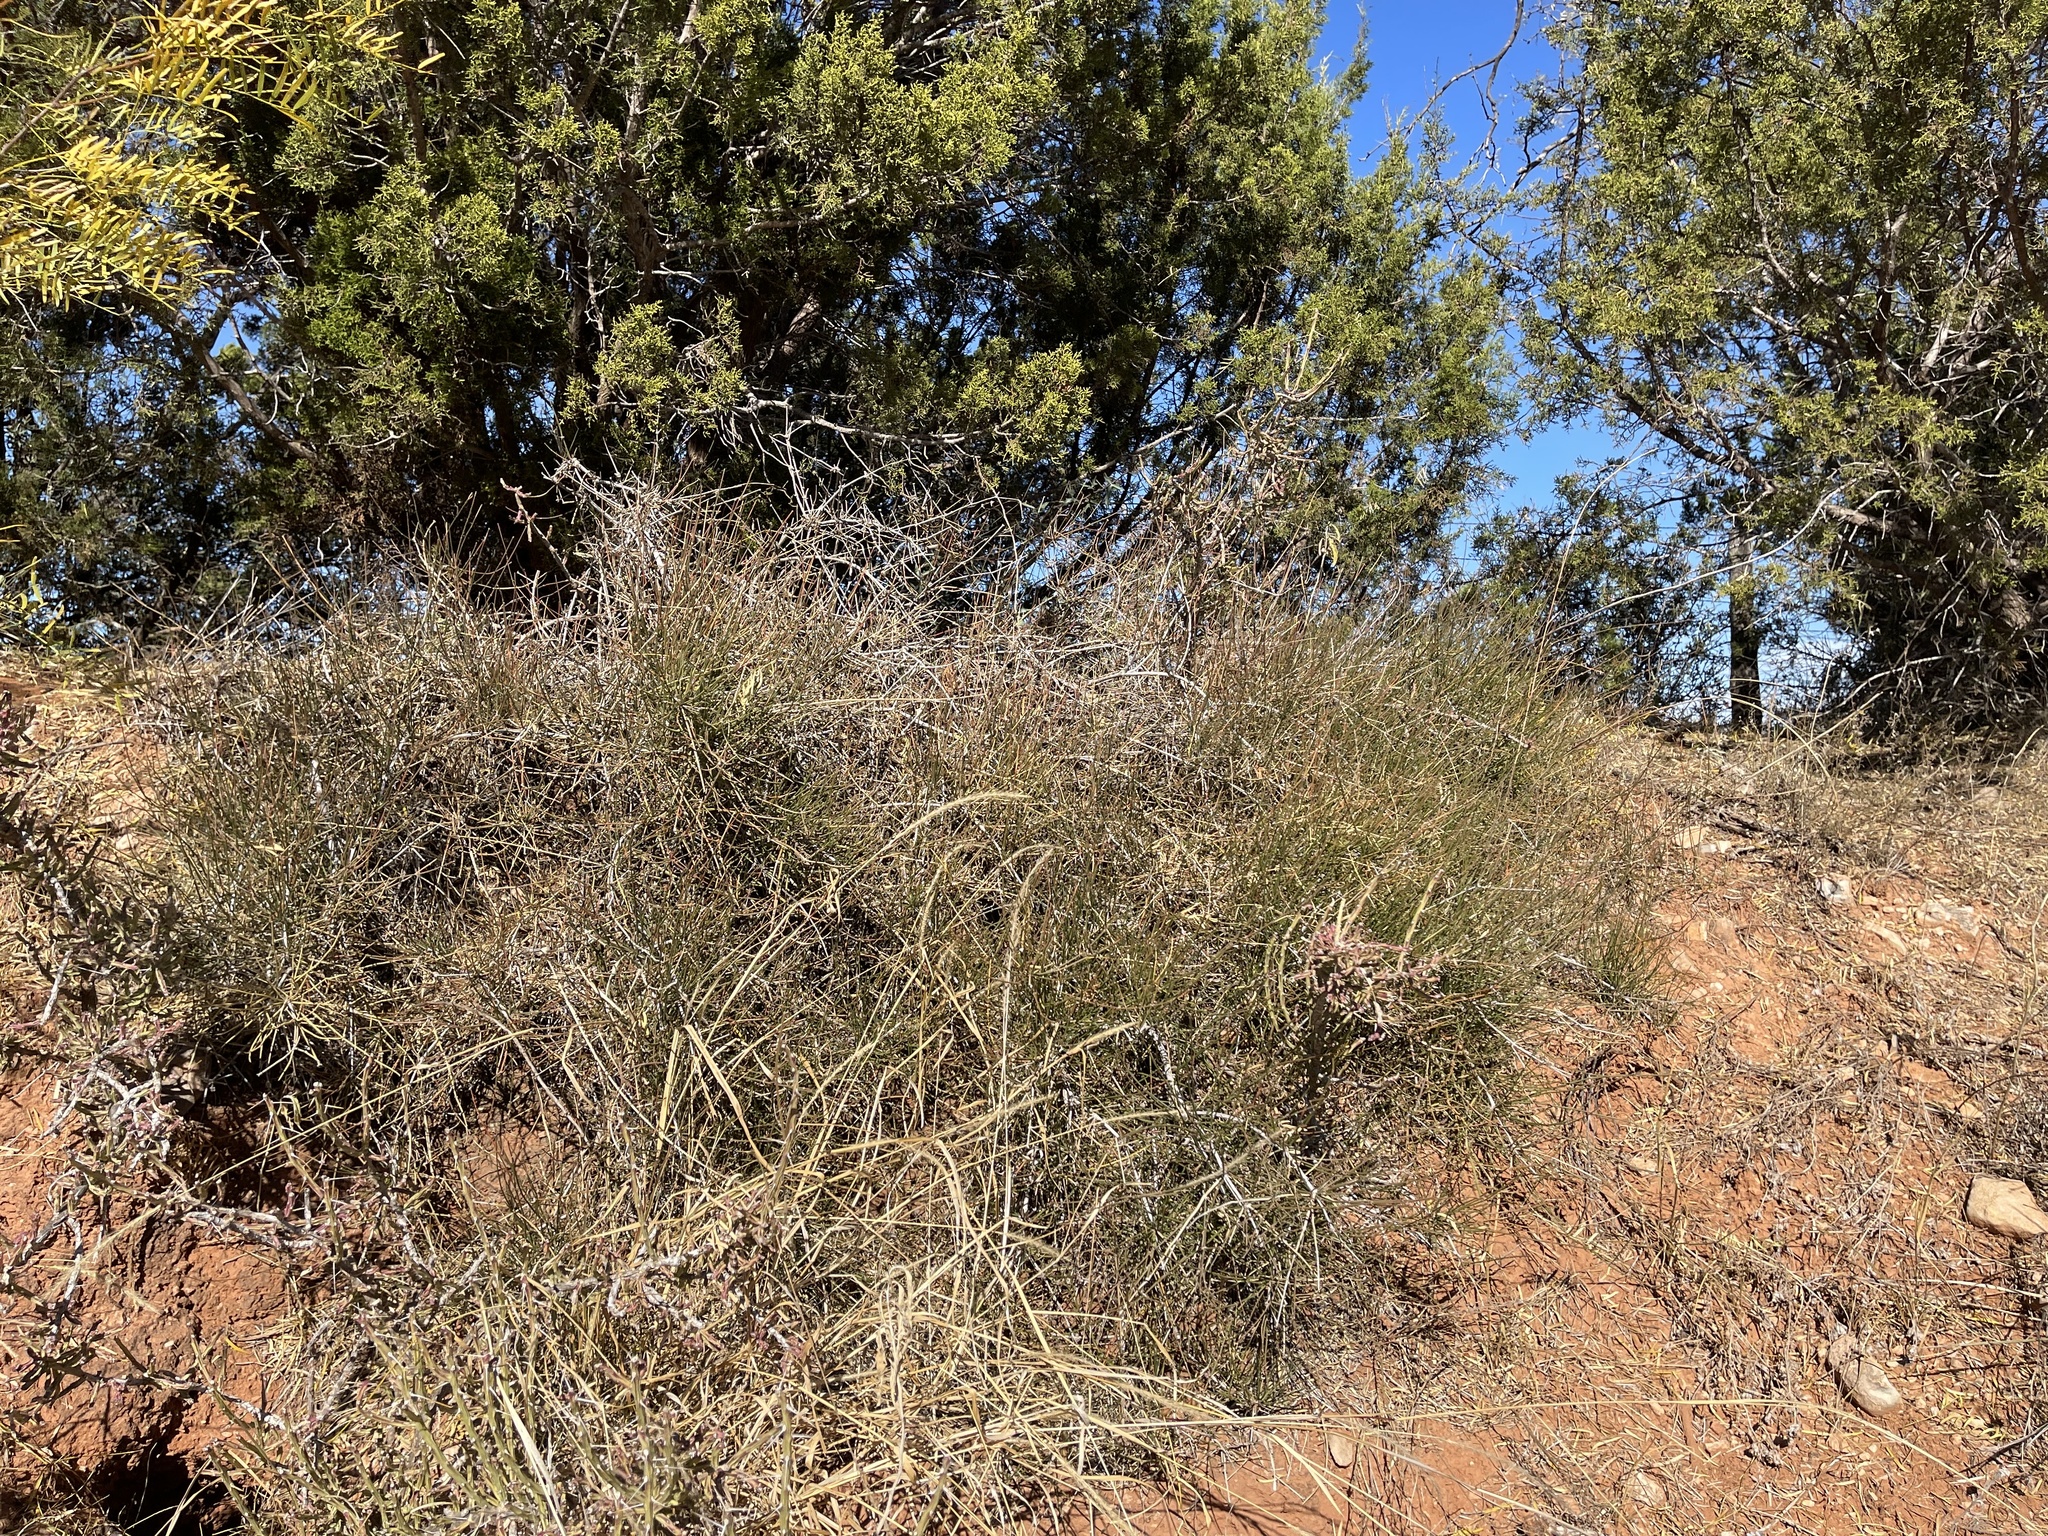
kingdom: Plantae
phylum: Tracheophyta
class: Gnetopsida
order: Ephedrales
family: Ephedraceae
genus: Ephedra
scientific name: Ephedra antisyphilitica
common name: Clipweed
